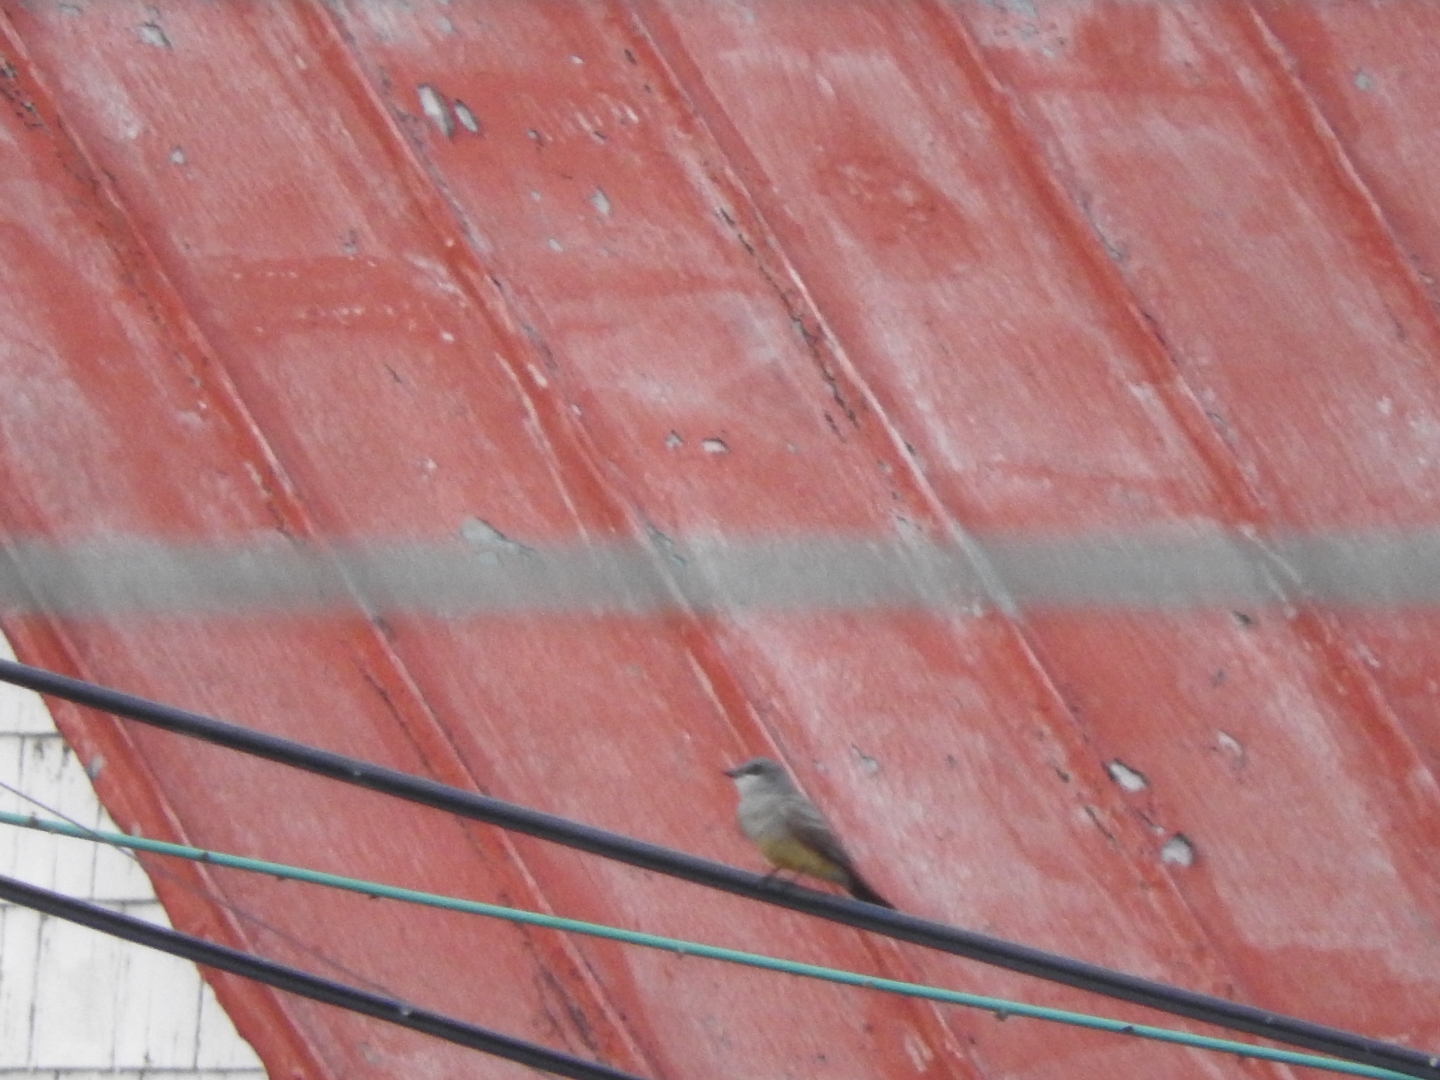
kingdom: Animalia
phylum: Chordata
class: Aves
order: Passeriformes
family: Tyrannidae
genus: Tyrannus
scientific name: Tyrannus vociferans
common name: Cassin's kingbird
